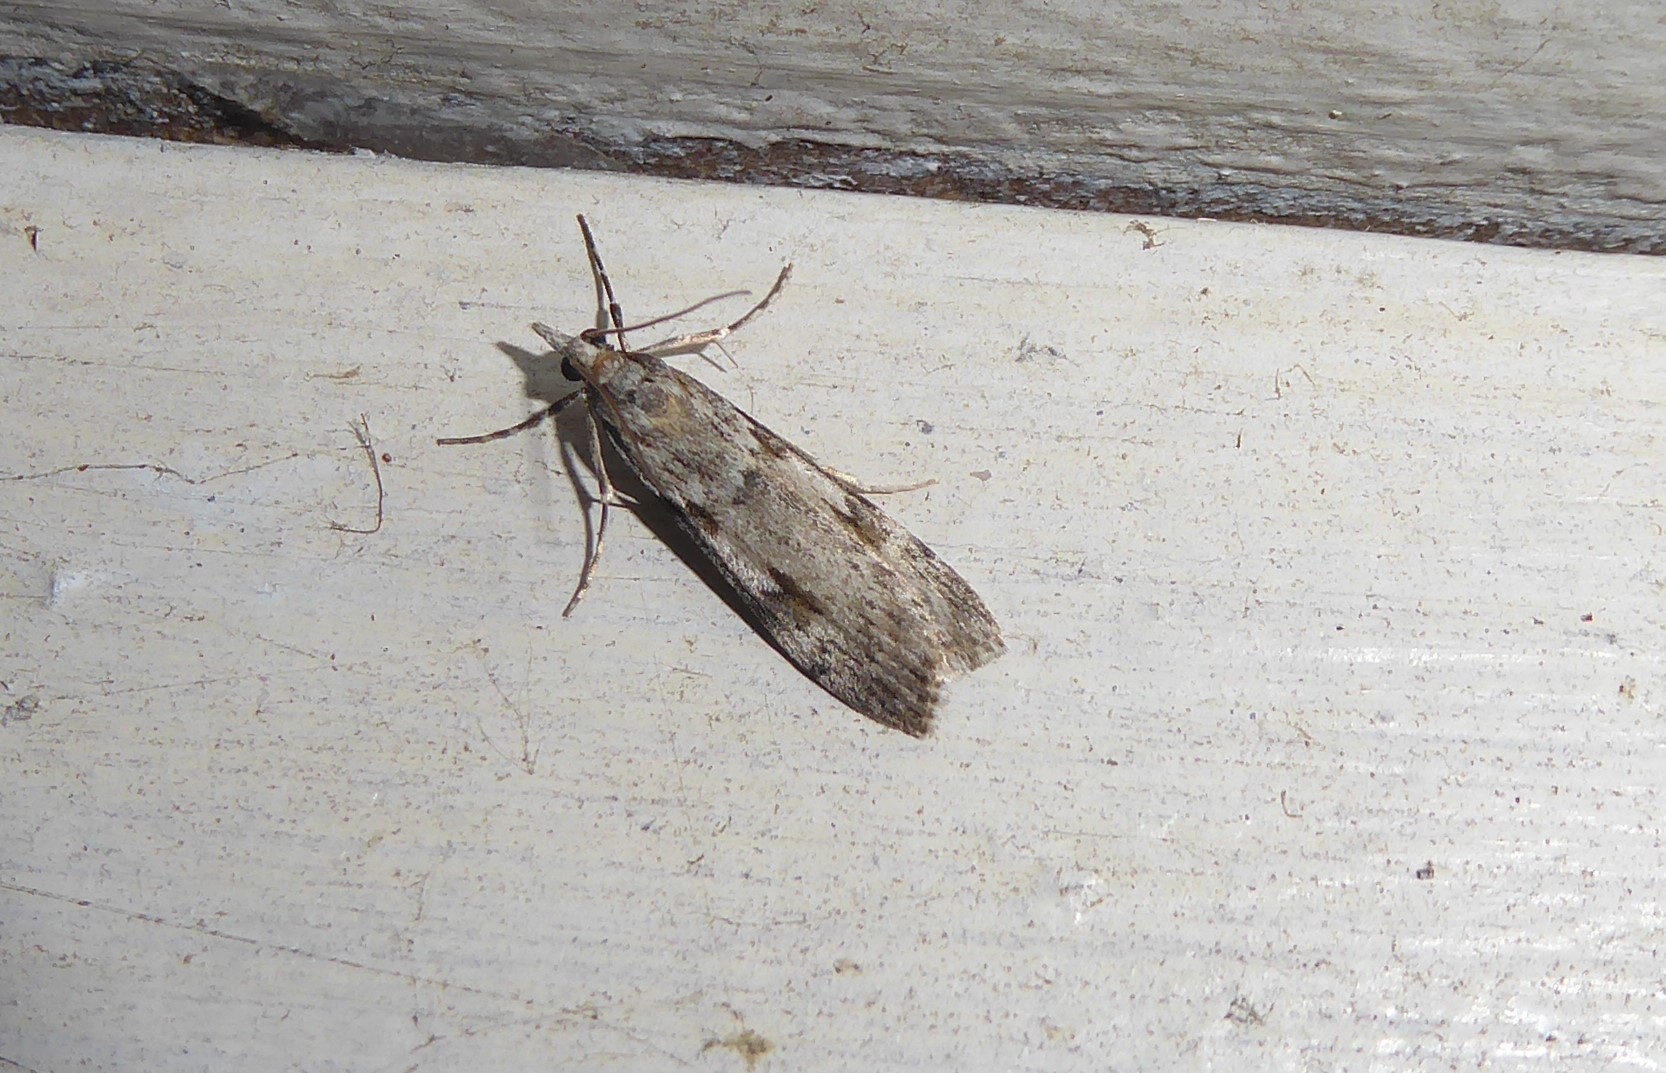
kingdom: Animalia
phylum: Arthropoda
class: Insecta
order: Lepidoptera
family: Crambidae
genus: Scoparia
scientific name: Scoparia halopis
